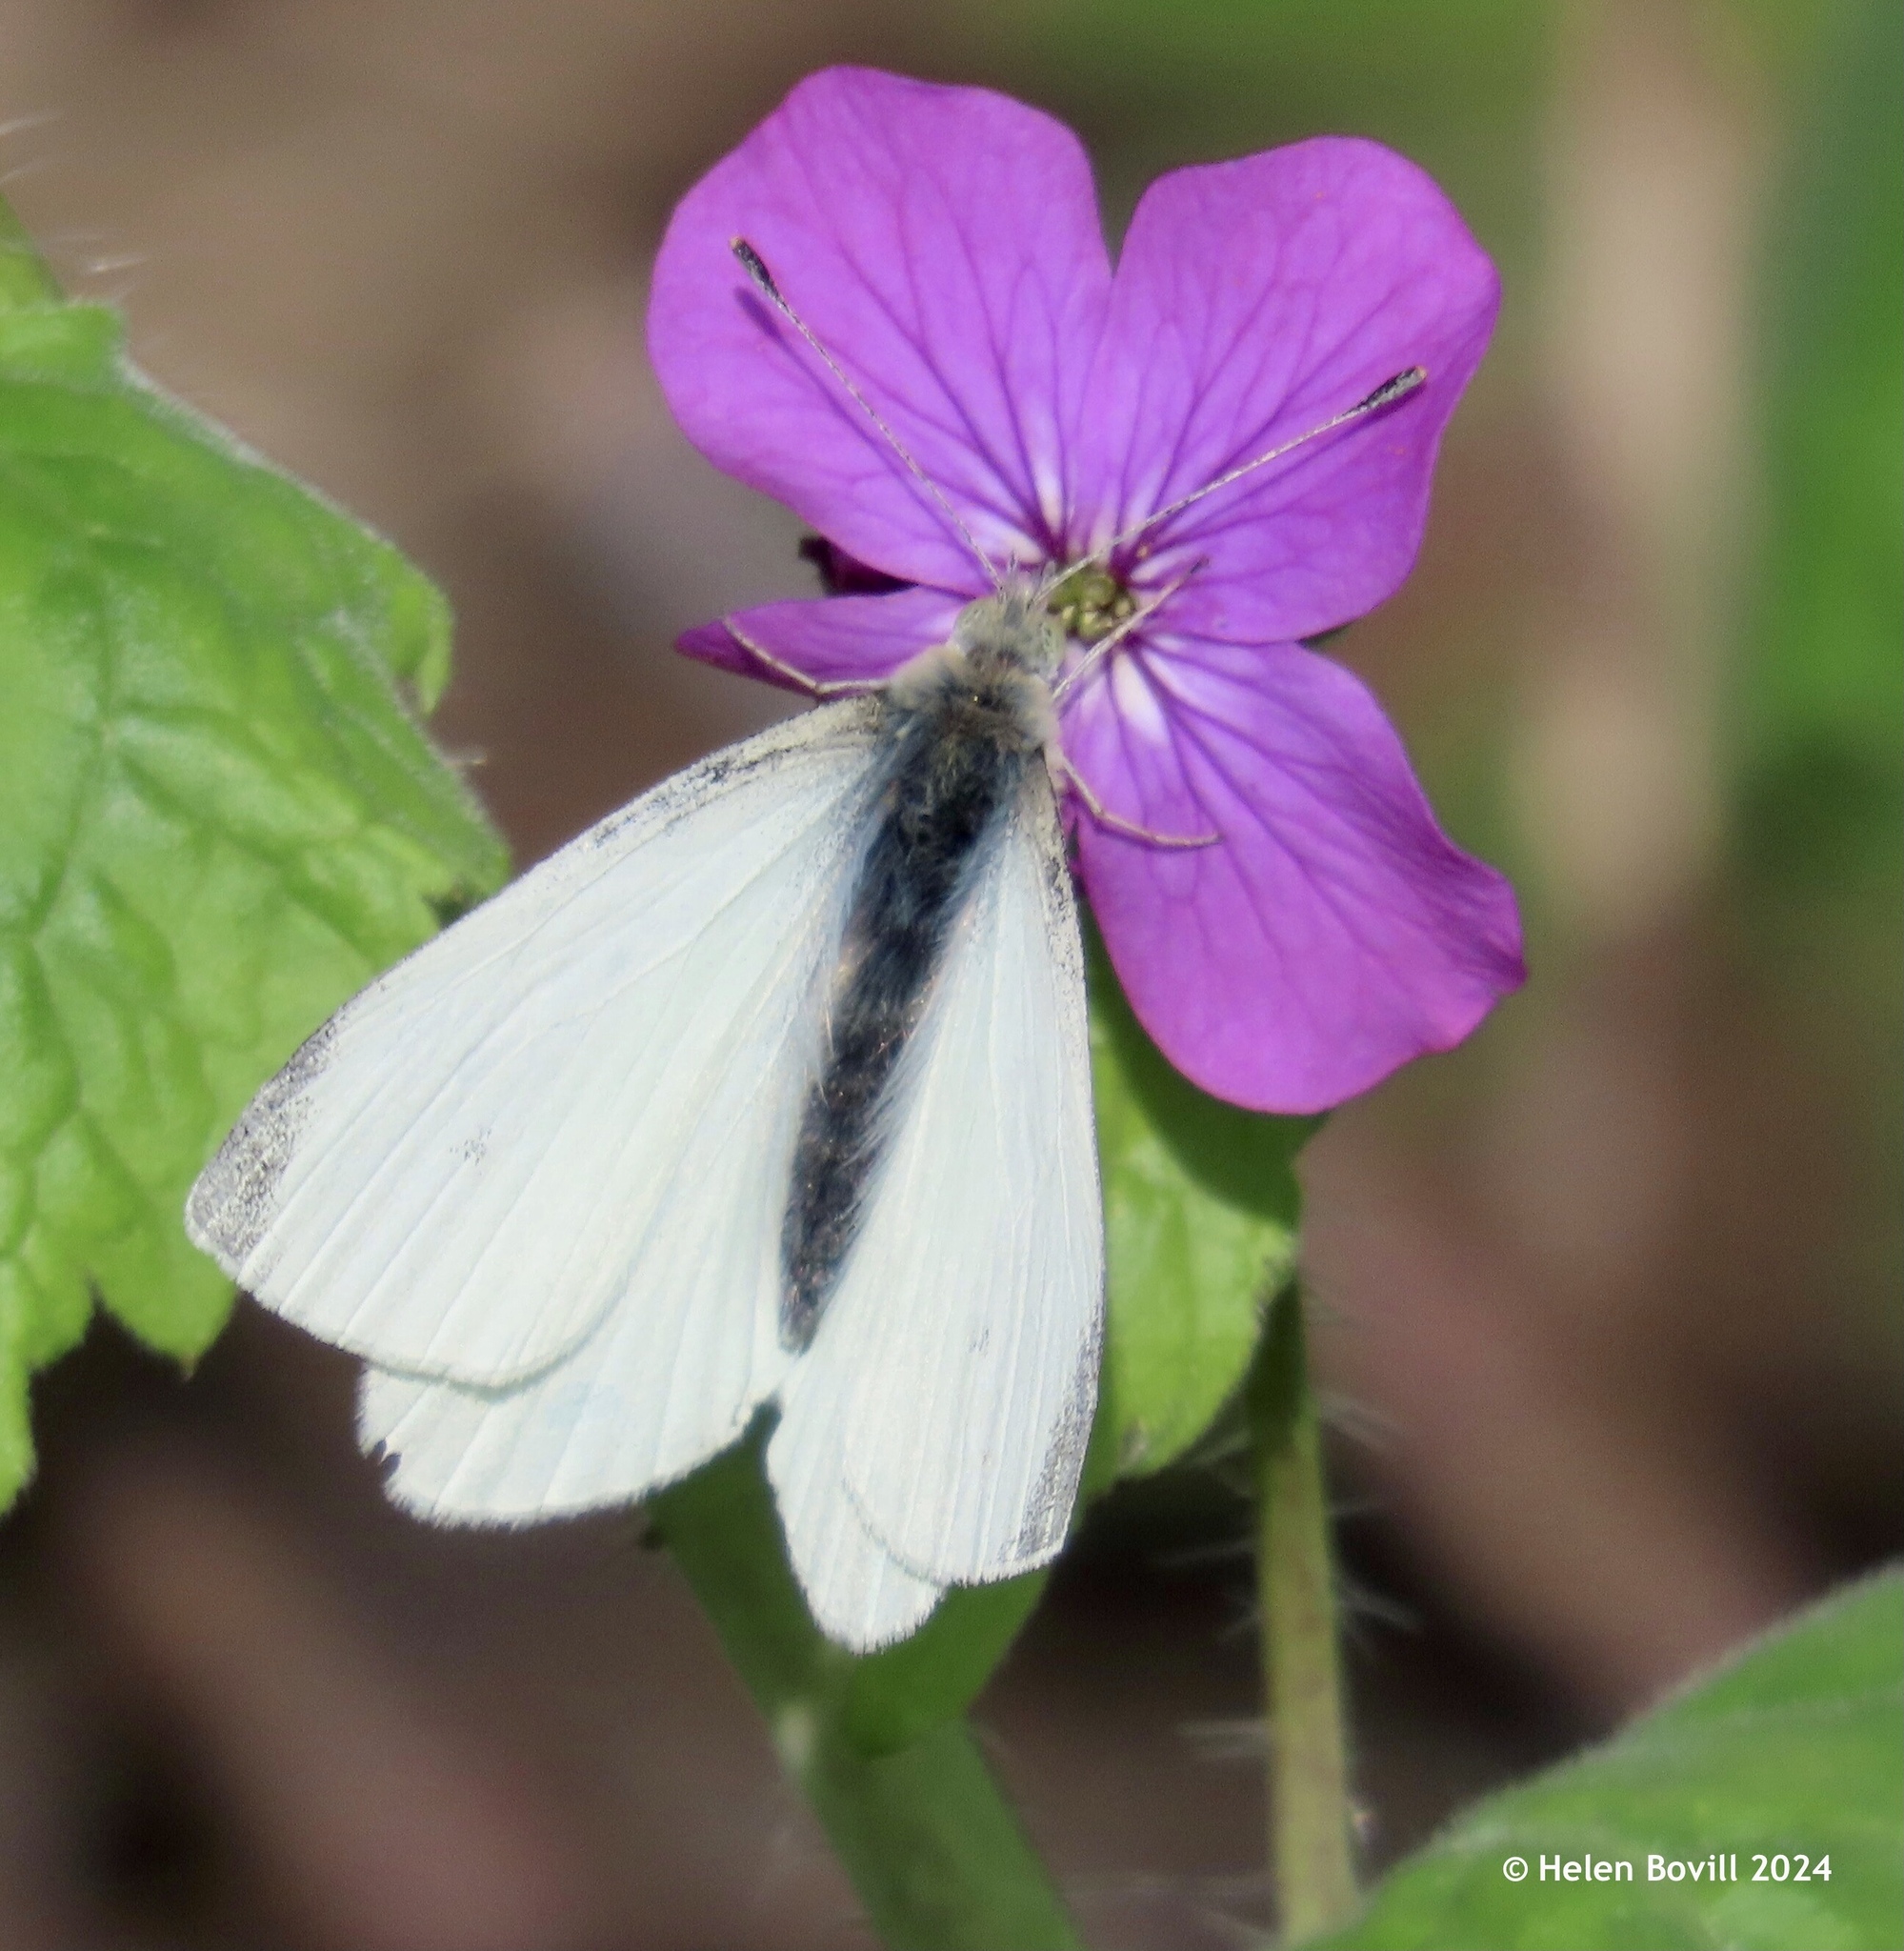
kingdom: Animalia
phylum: Arthropoda
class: Insecta
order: Lepidoptera
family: Pieridae
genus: Pieris
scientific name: Pieris rapae
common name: Small white
